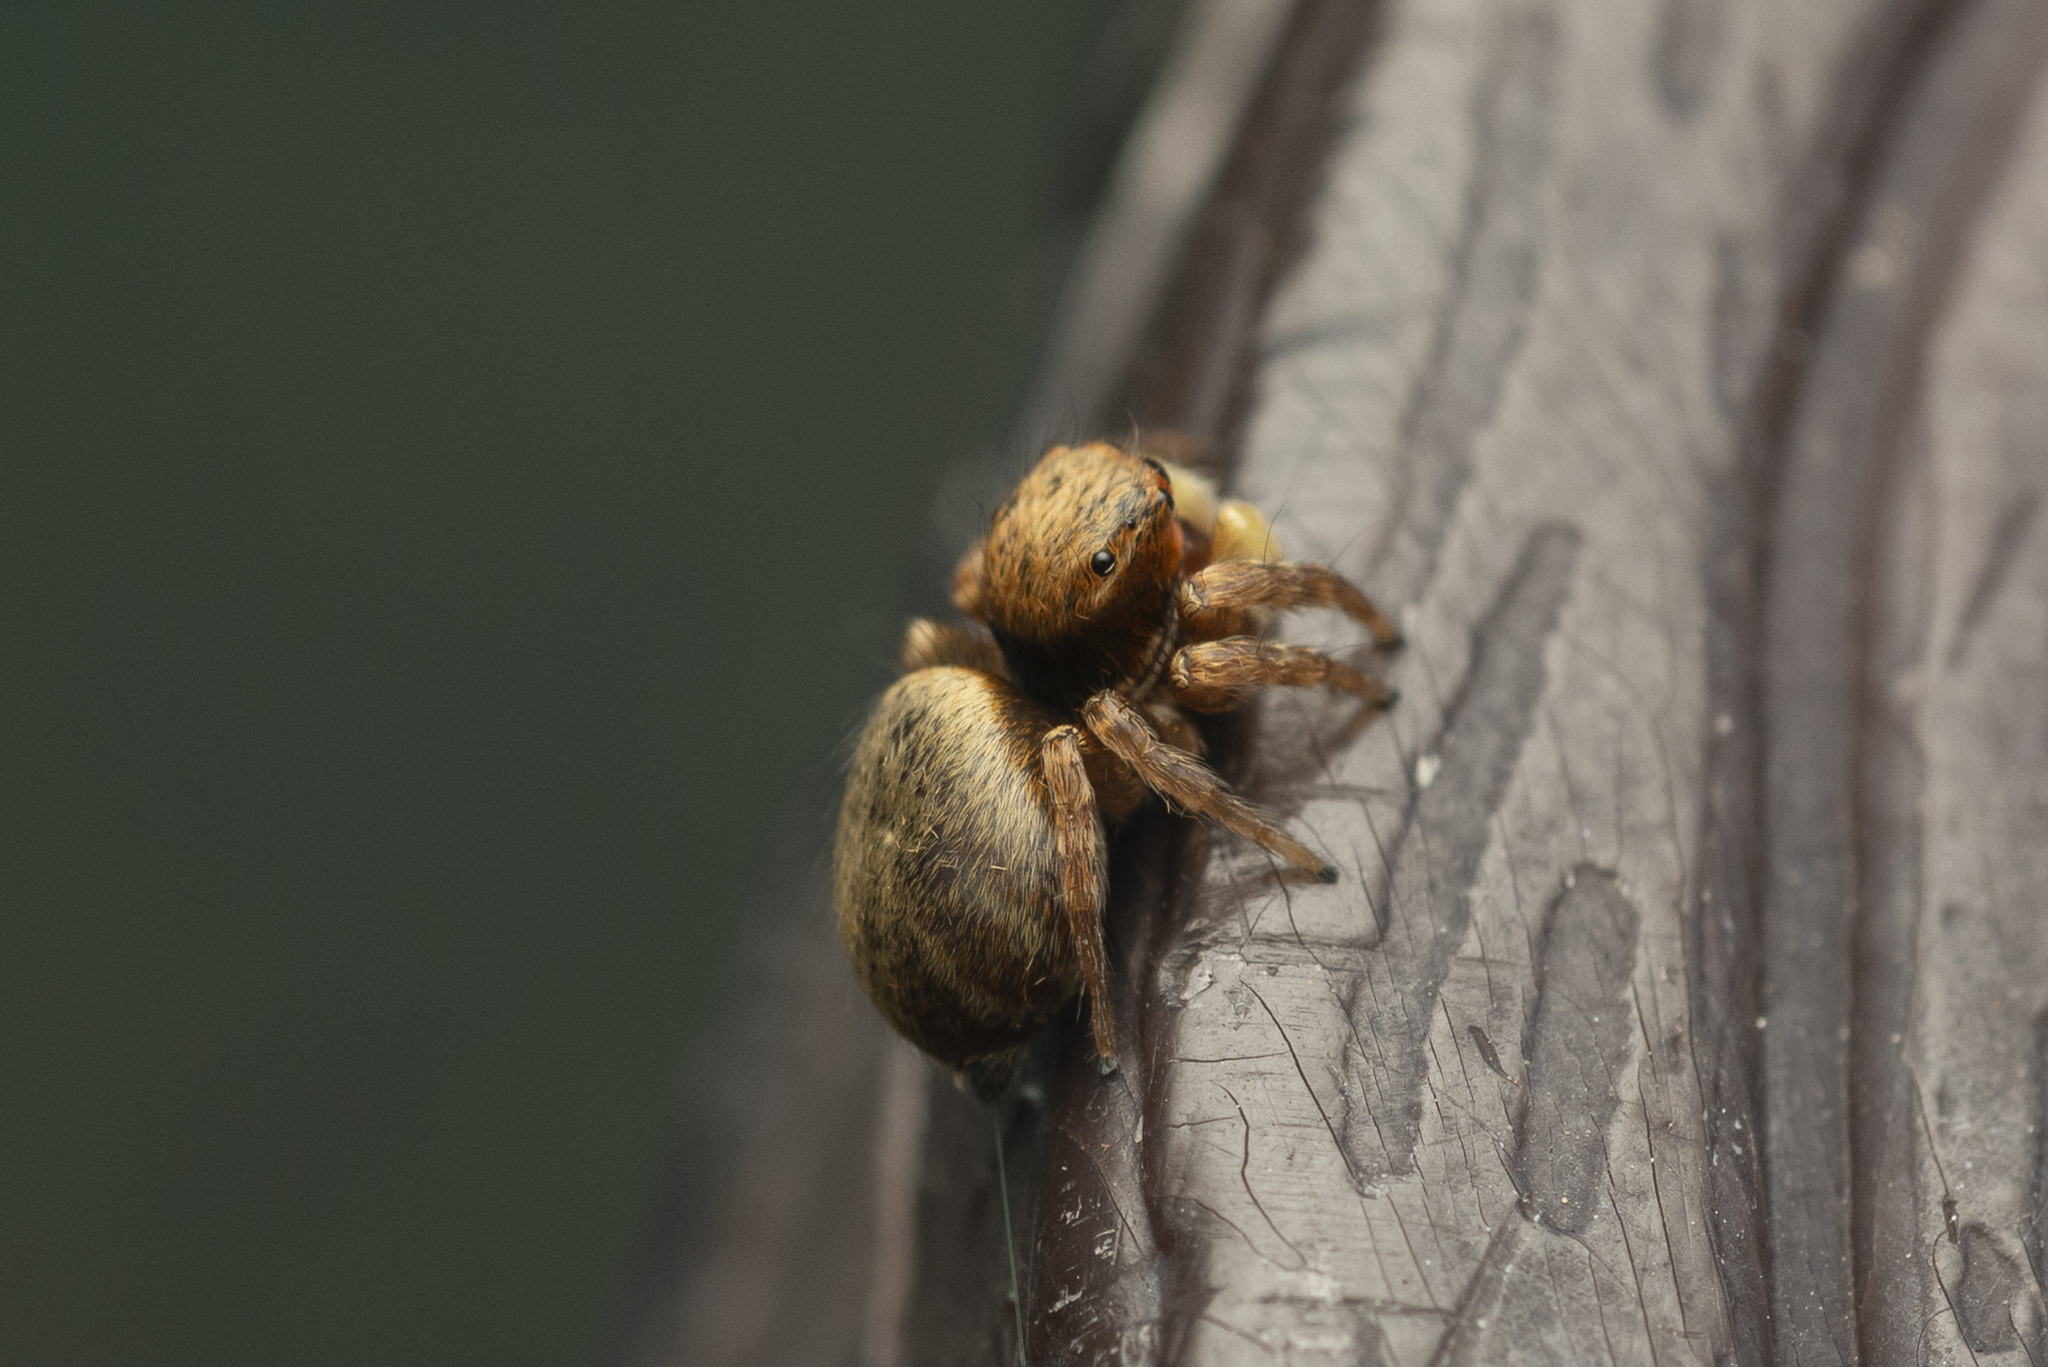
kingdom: Animalia
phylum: Arthropoda
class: Arachnida
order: Araneae
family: Salticidae
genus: Carrhotus
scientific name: Carrhotus sannio
